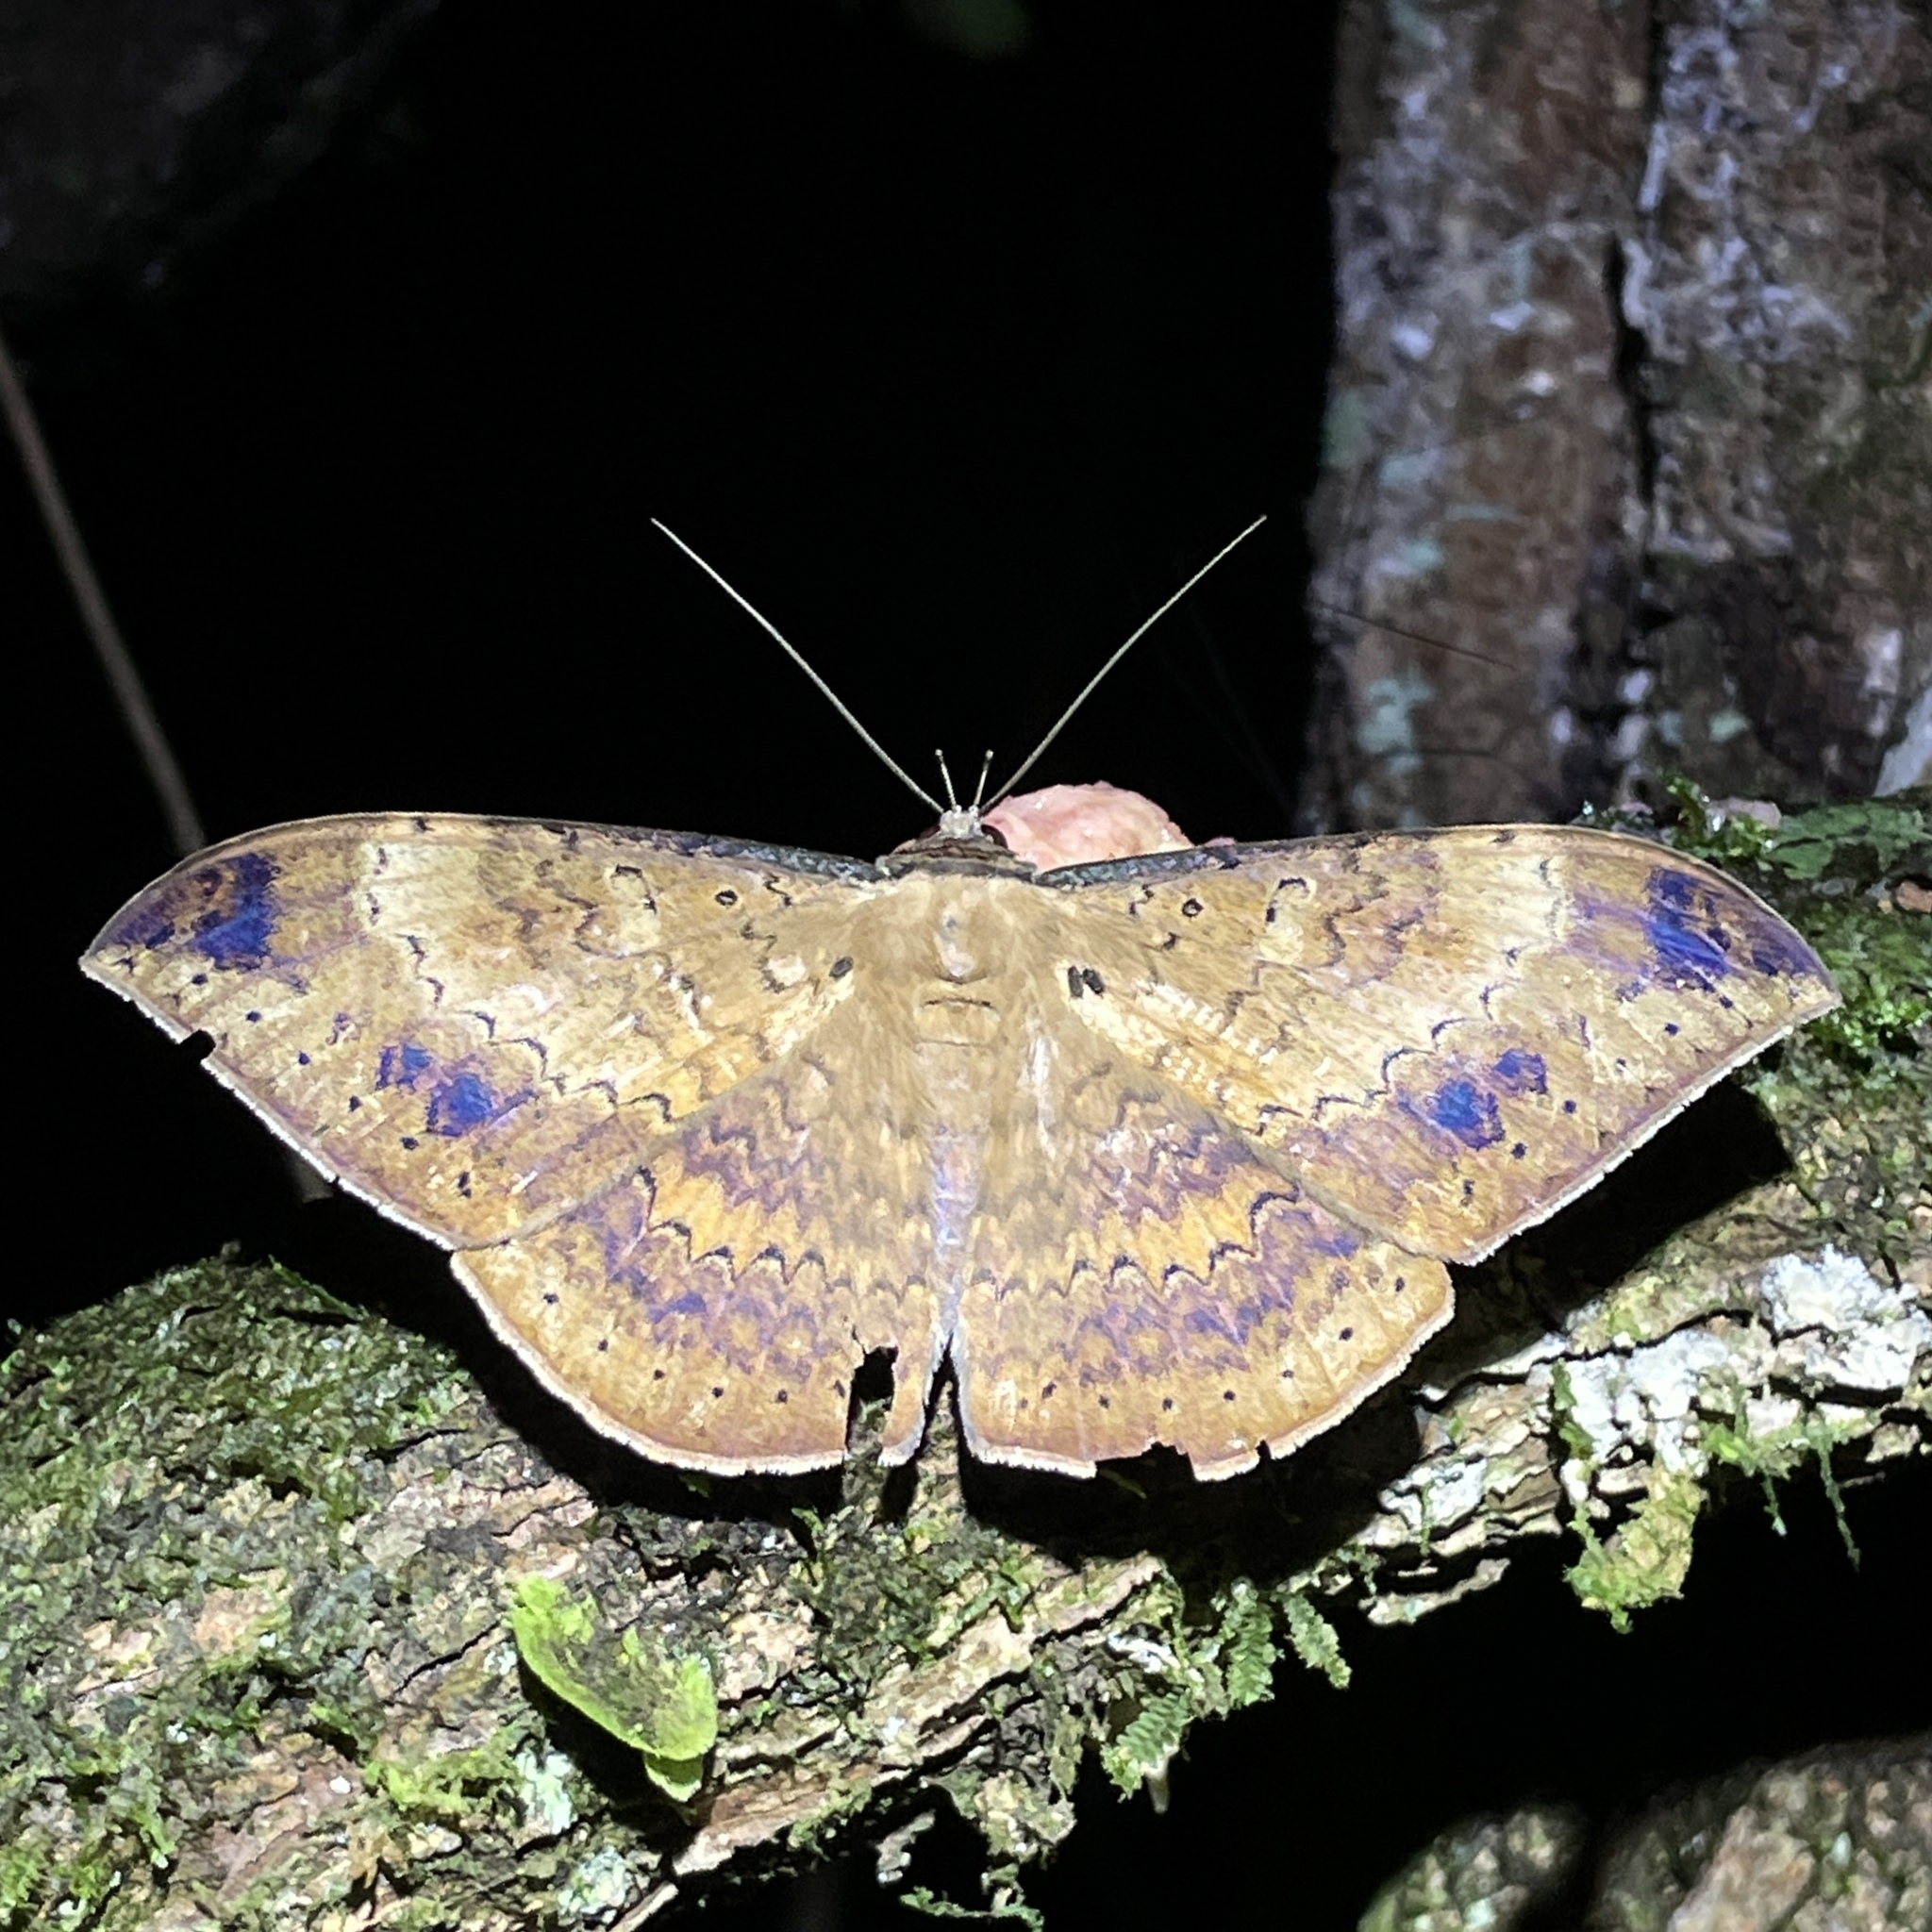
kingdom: Animalia
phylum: Arthropoda
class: Insecta
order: Lepidoptera
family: Erebidae
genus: Hemeroblemma
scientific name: Hemeroblemma opigena
